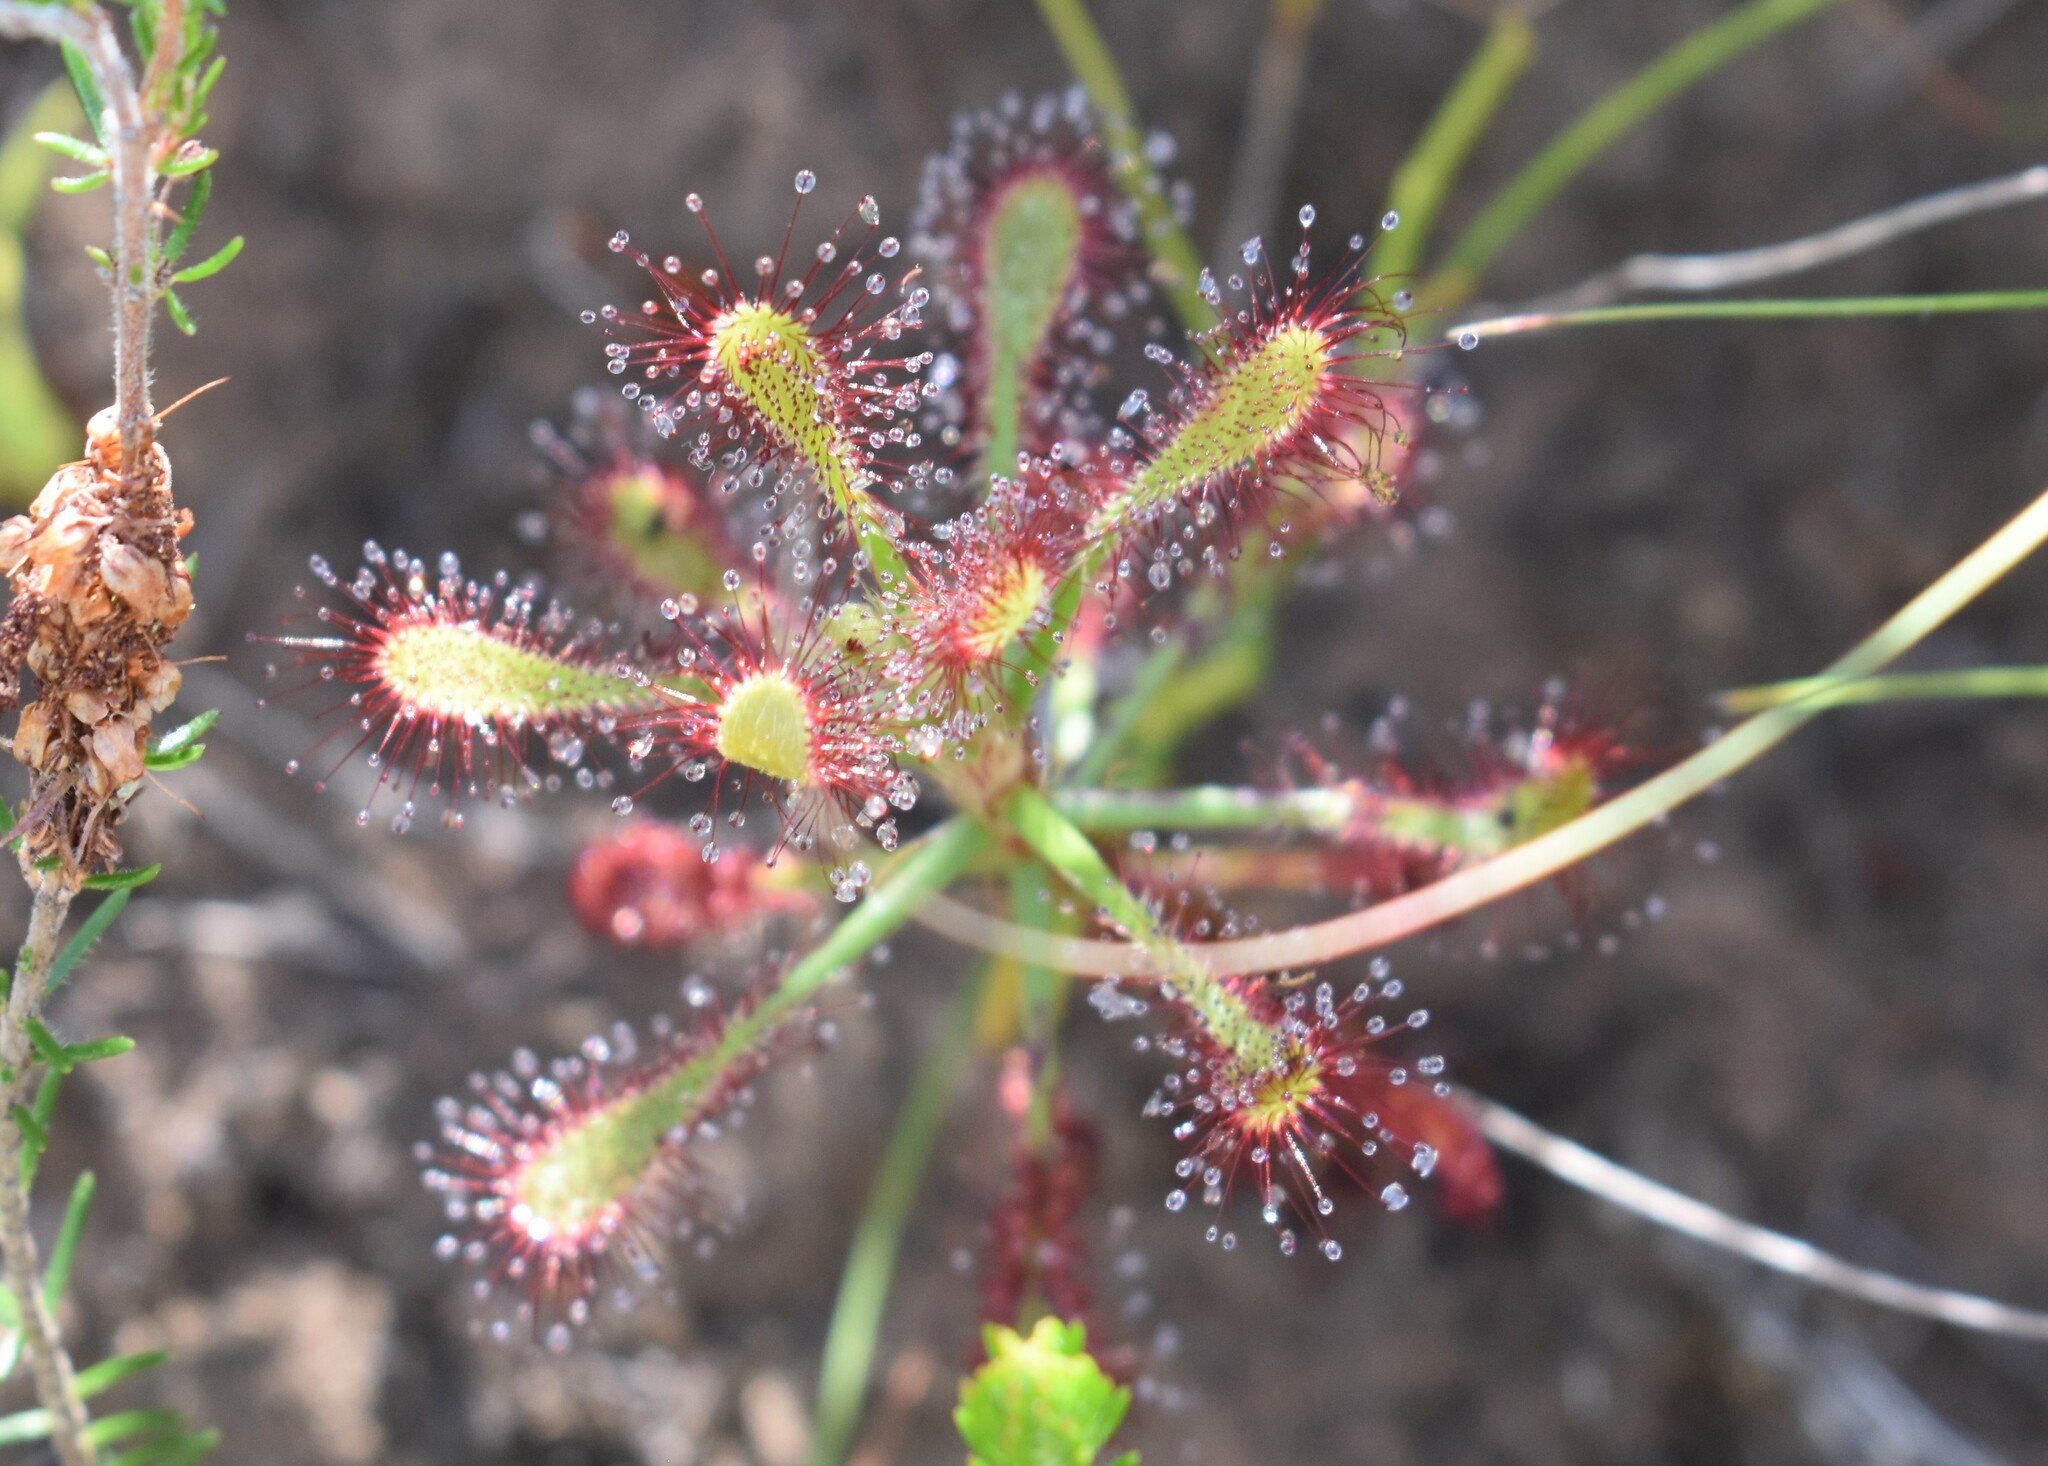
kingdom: Plantae
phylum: Tracheophyta
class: Magnoliopsida
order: Caryophyllales
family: Droseraceae
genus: Drosera
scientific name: Drosera glabripes
